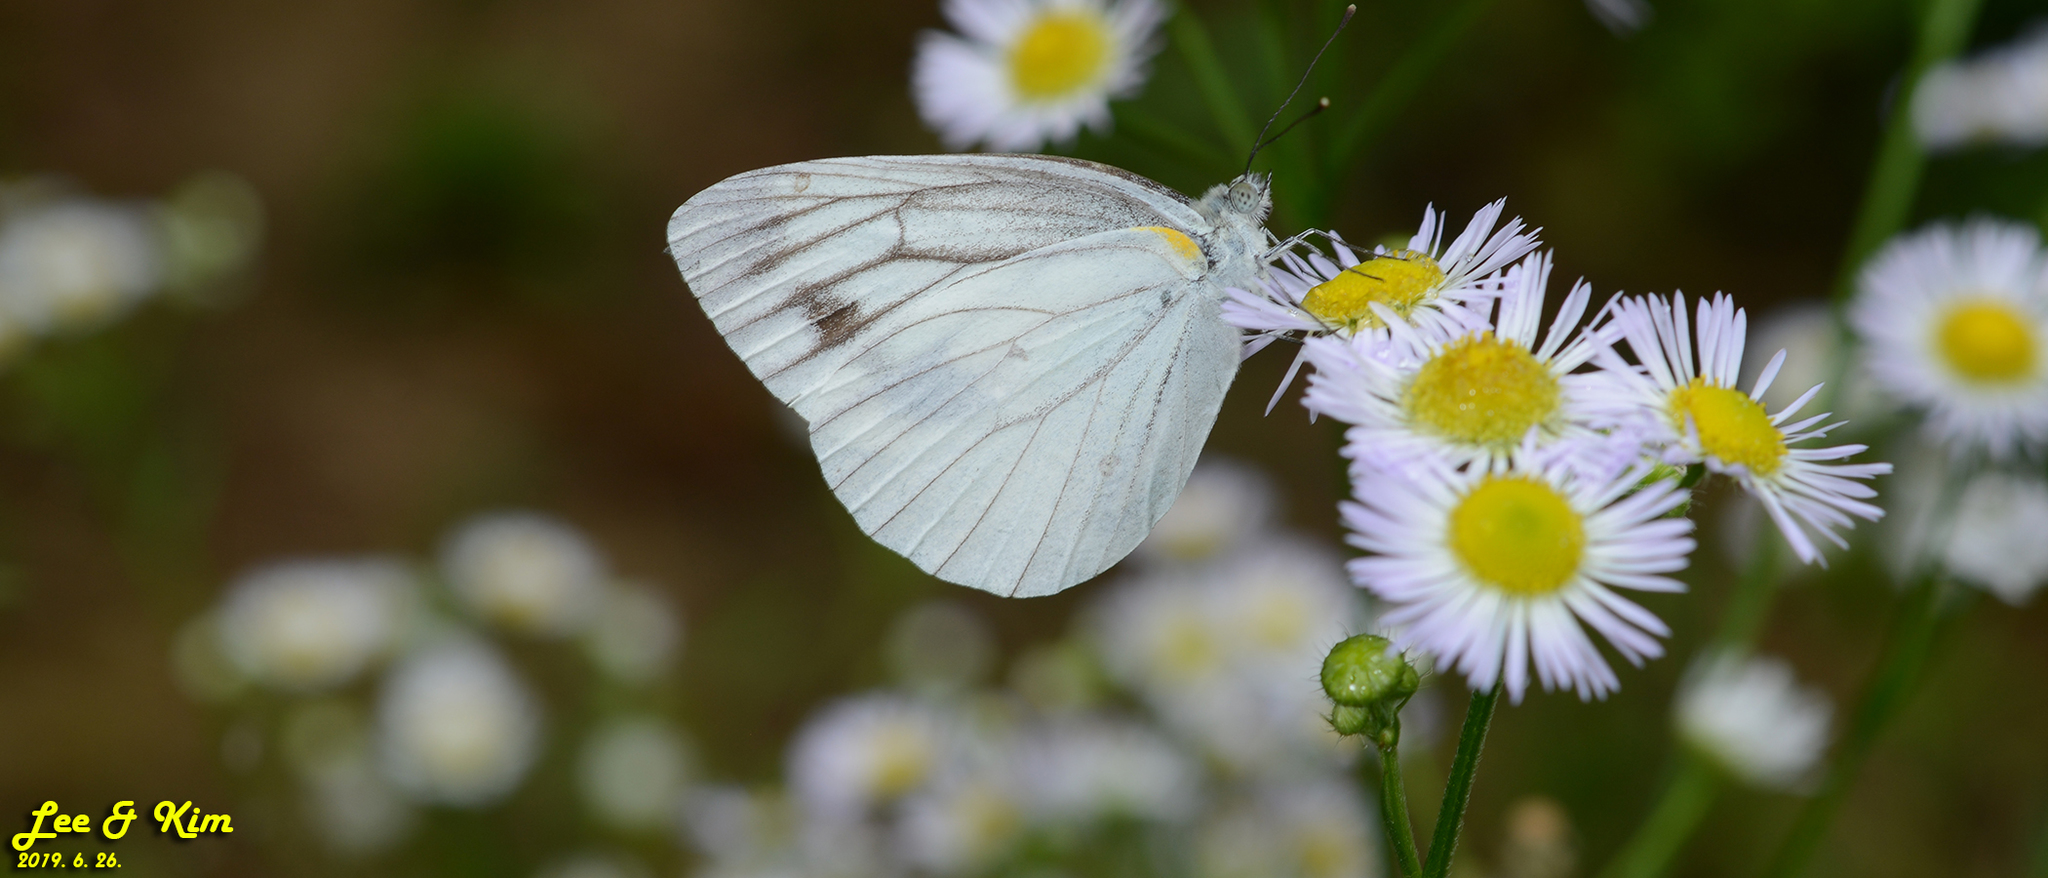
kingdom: Animalia
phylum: Arthropoda
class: Insecta
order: Lepidoptera
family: Pieridae
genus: Pieris
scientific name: Pieris melete
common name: Asian green-veined white
